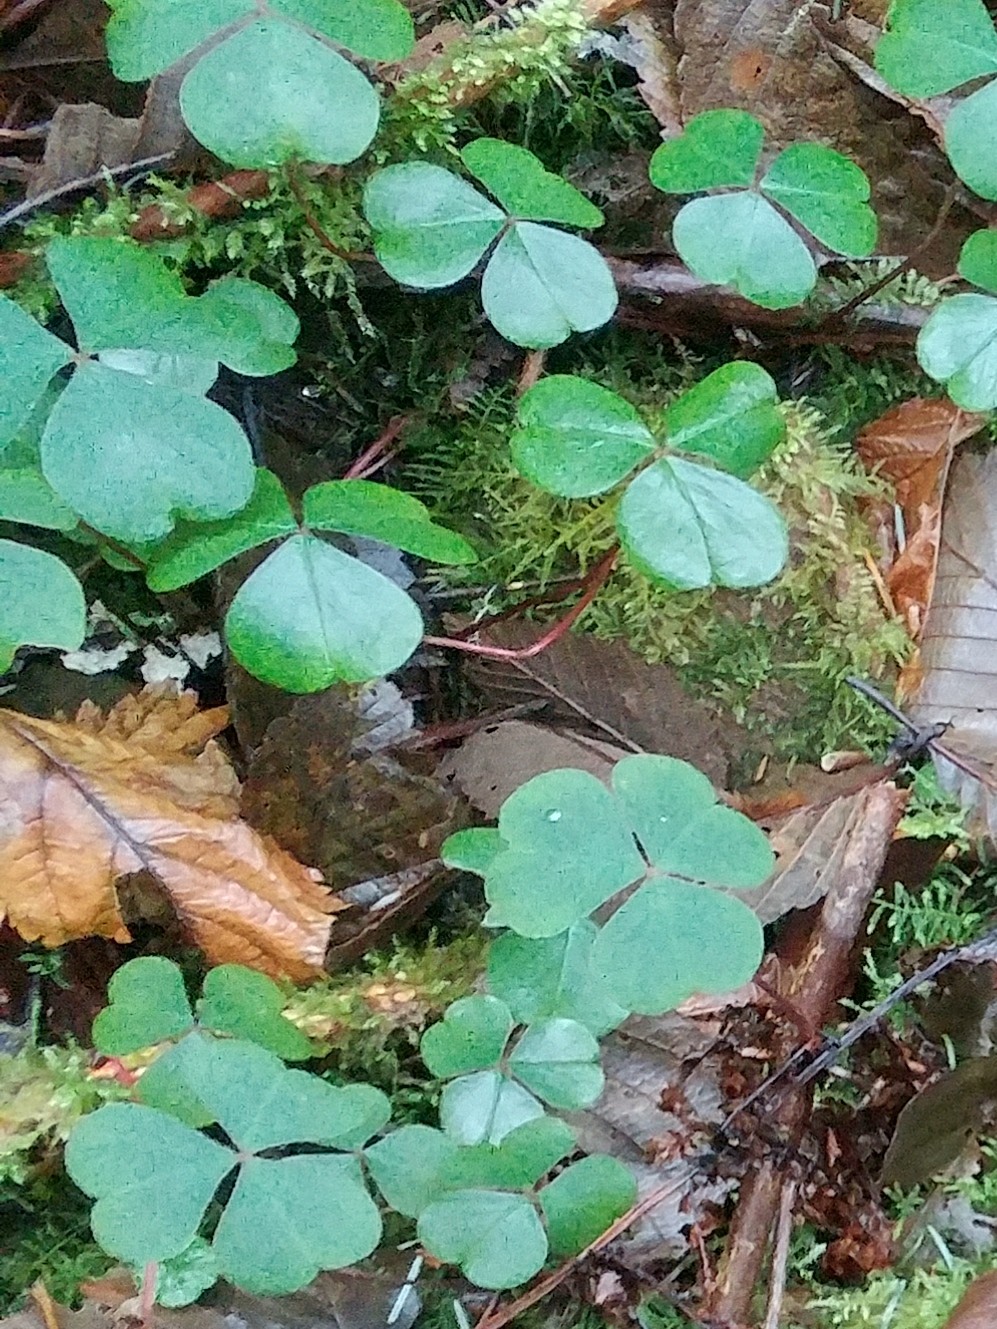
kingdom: Plantae
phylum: Tracheophyta
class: Magnoliopsida
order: Oxalidales
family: Oxalidaceae
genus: Oxalis
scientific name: Oxalis oregana
